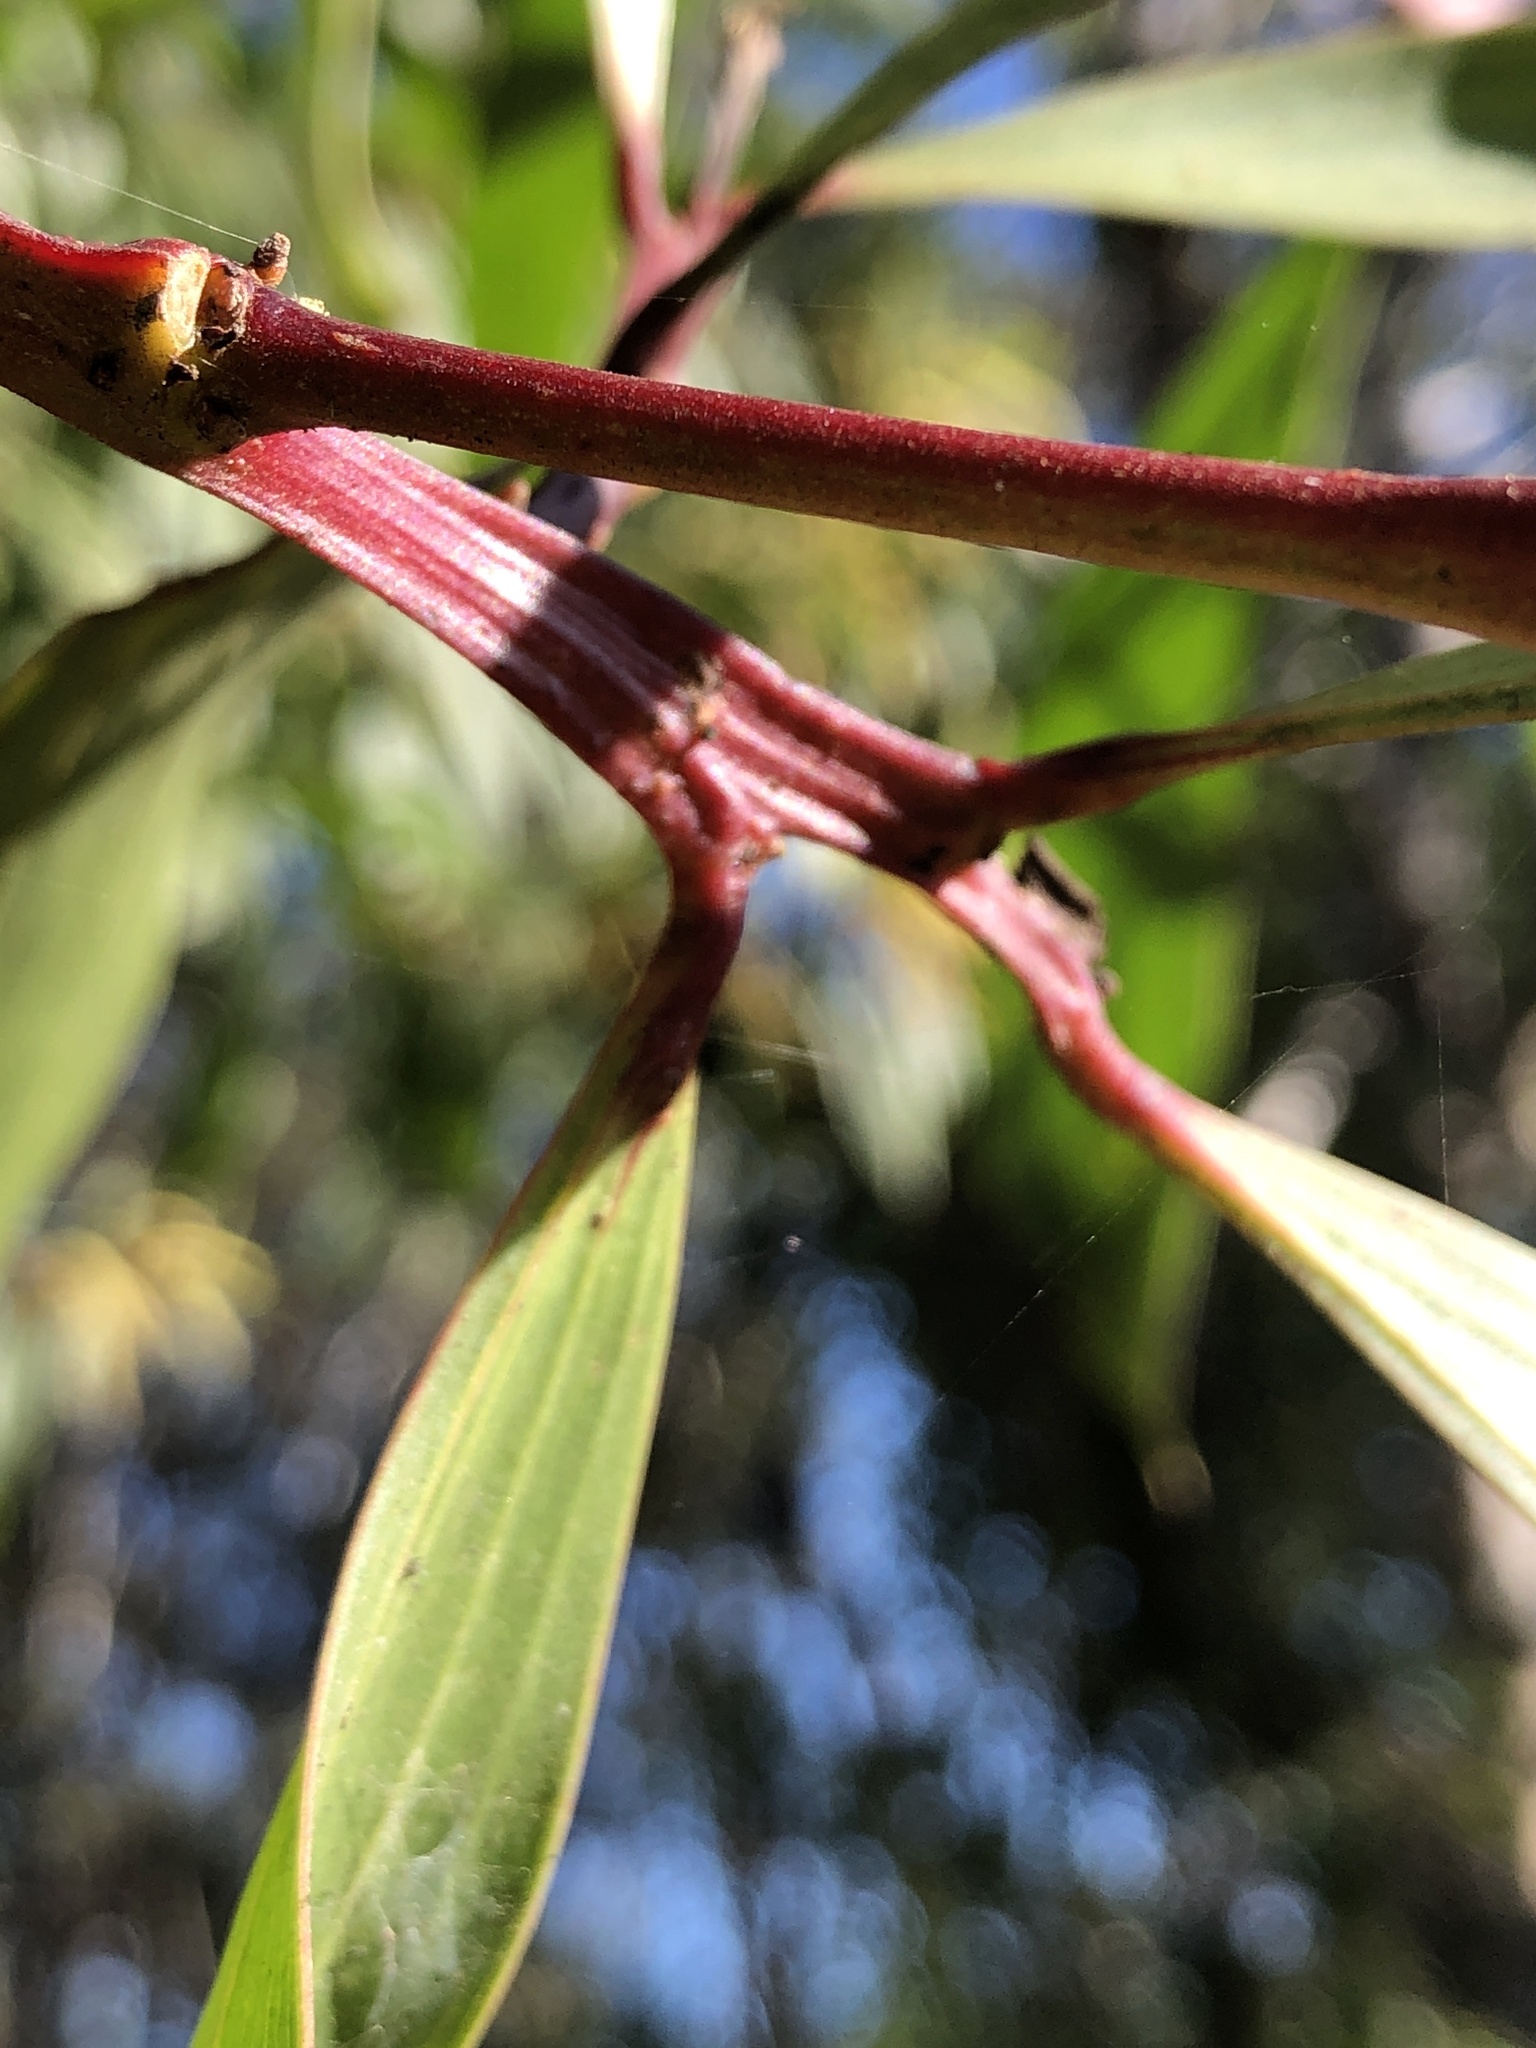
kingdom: Plantae
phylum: Tracheophyta
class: Magnoliopsida
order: Fabales
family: Fabaceae
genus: Acacia
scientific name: Acacia leiocalyx
